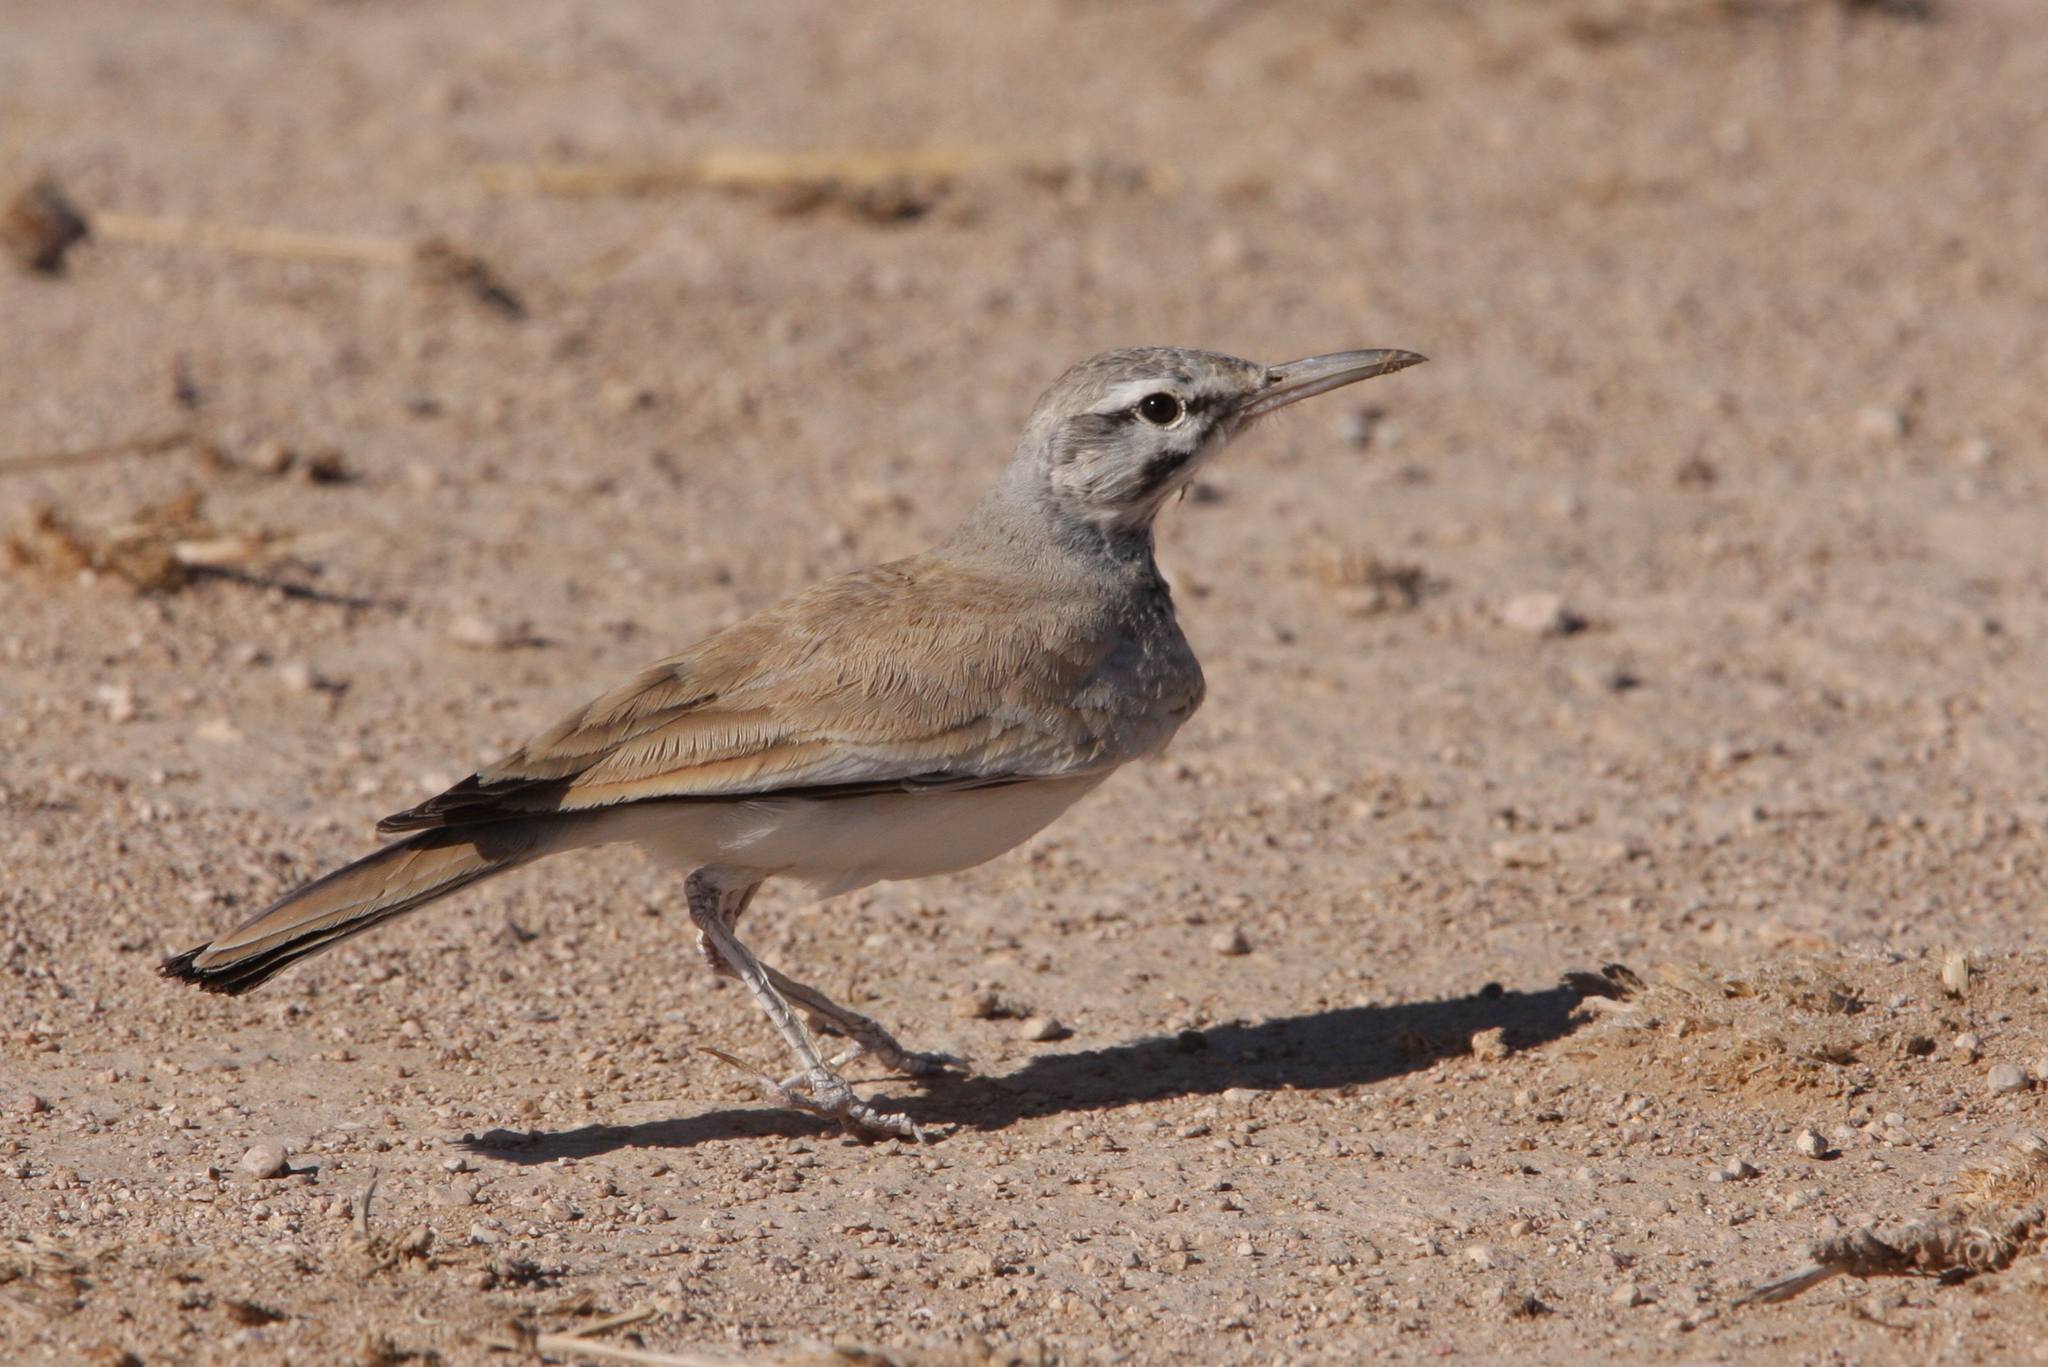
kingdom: Animalia
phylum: Chordata
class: Aves
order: Passeriformes
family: Alaudidae
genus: Alaemon
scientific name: Alaemon alaudipes
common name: Greater hoopoe-lark
